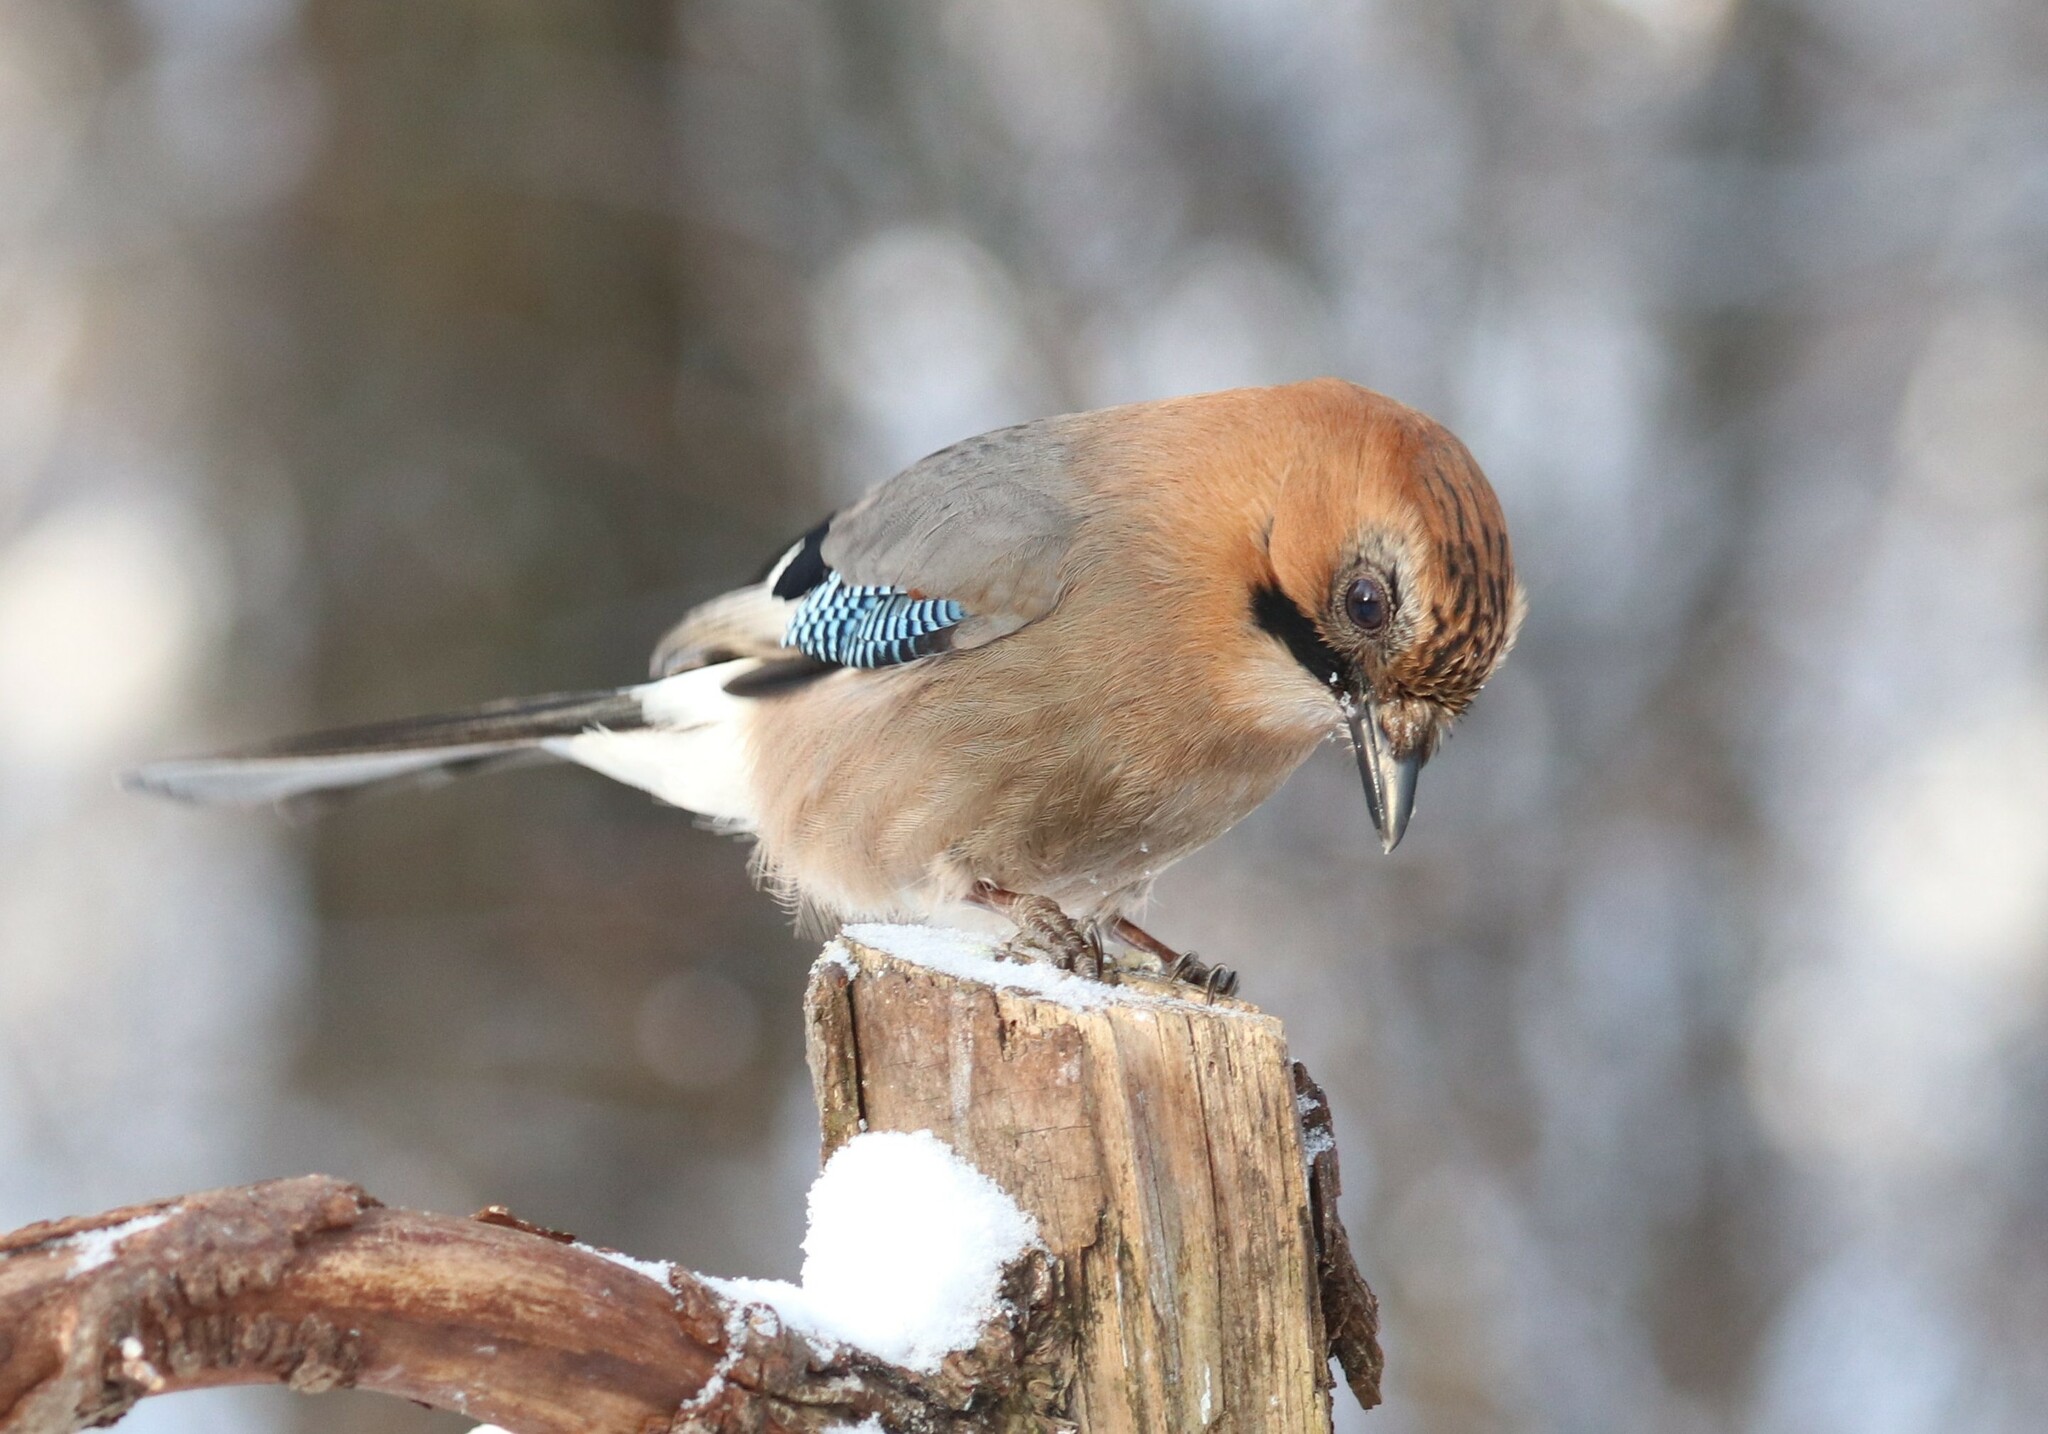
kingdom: Animalia
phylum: Chordata
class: Aves
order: Passeriformes
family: Corvidae
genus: Garrulus
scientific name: Garrulus glandarius
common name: Eurasian jay
